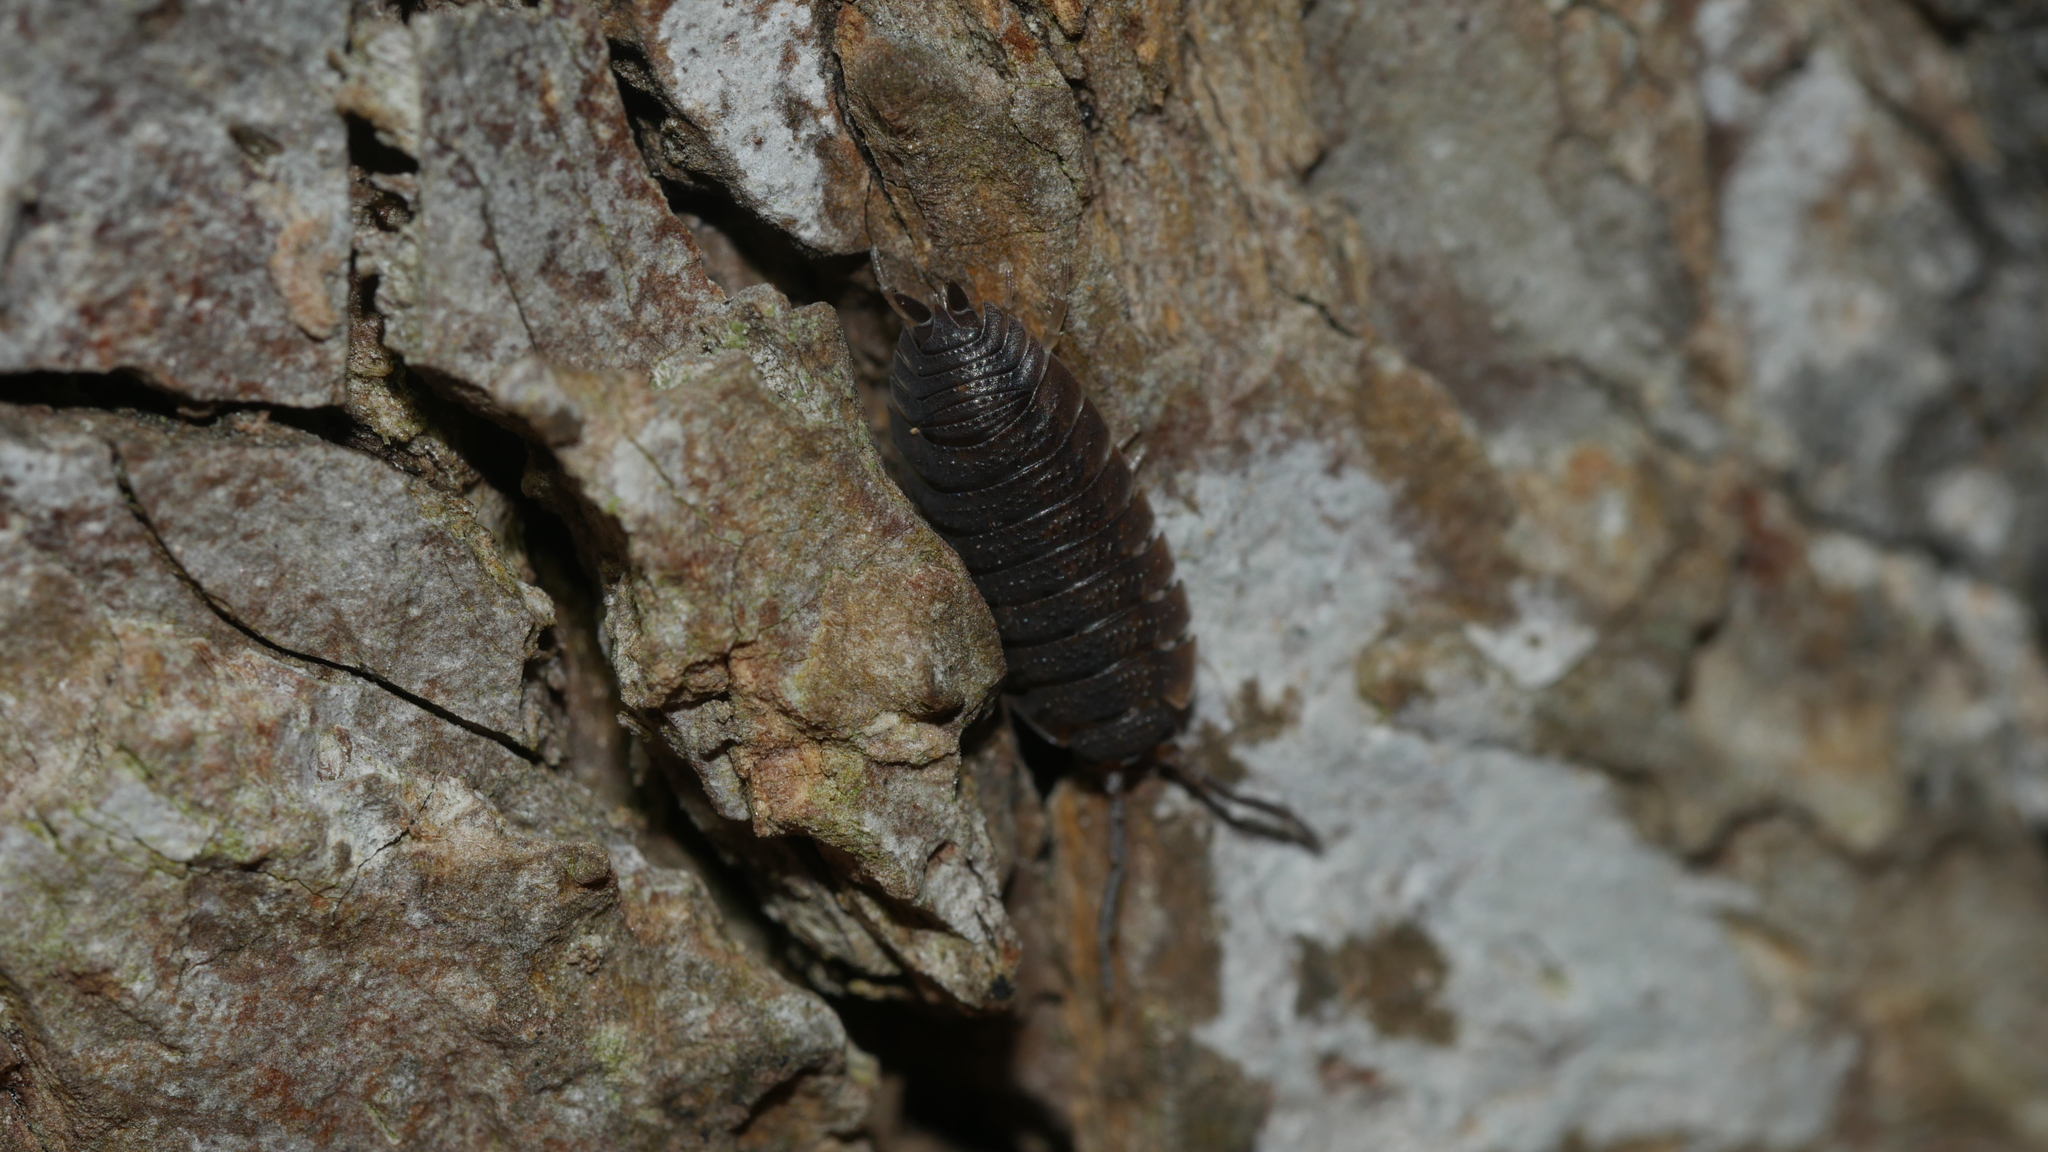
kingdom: Animalia
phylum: Arthropoda
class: Malacostraca
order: Isopoda
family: Porcellionidae
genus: Porcellio
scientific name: Porcellio scaber
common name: Common rough woodlouse
